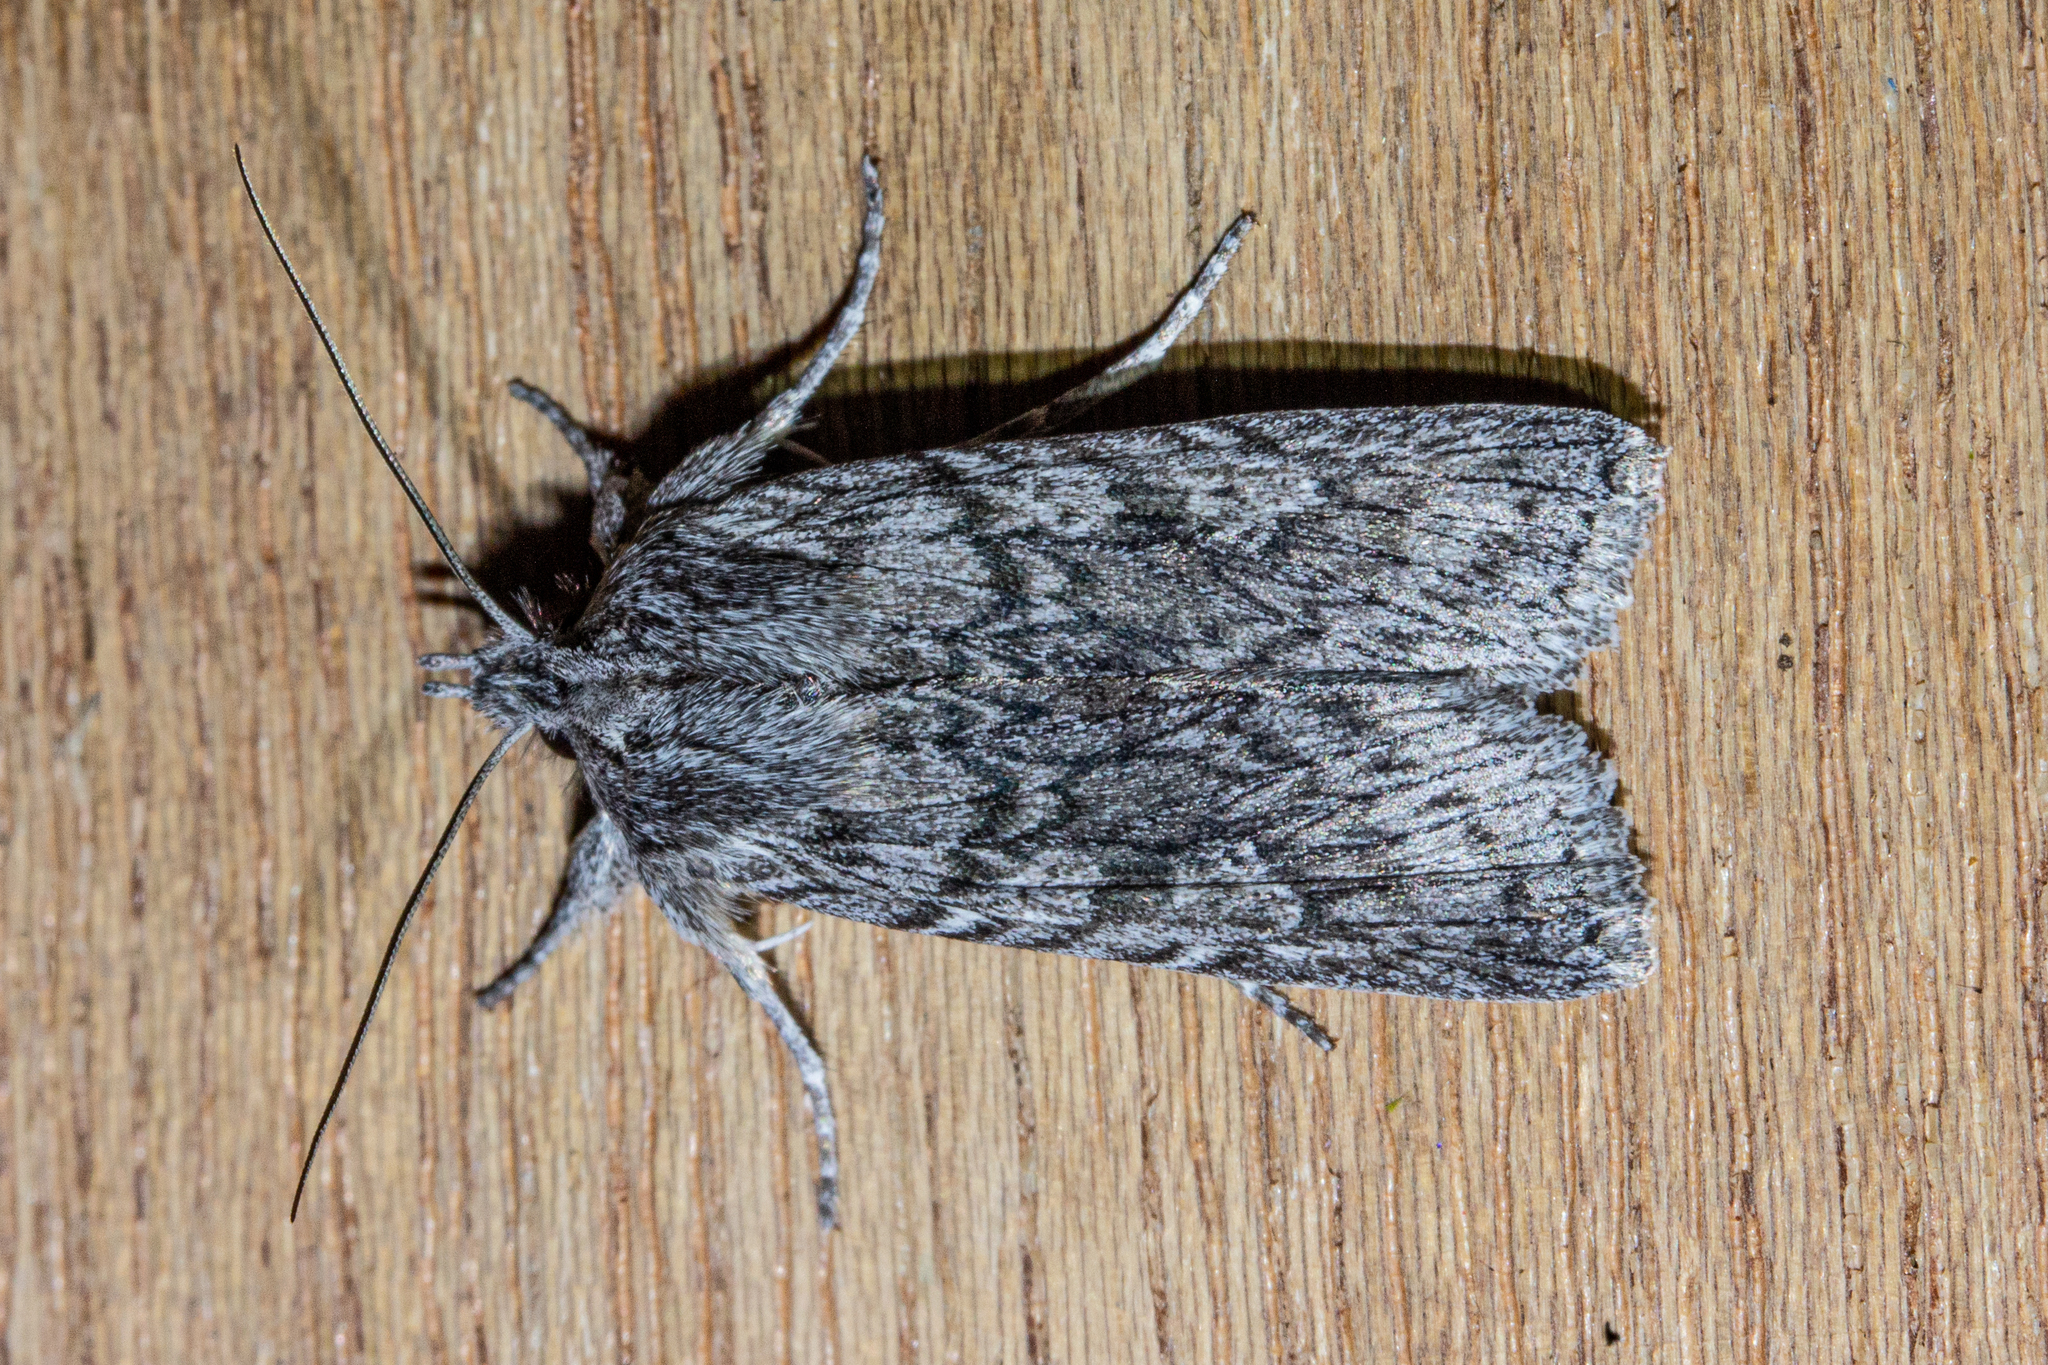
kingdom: Animalia
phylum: Arthropoda
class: Insecta
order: Lepidoptera
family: Noctuidae
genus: Physetica
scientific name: Physetica phricias
